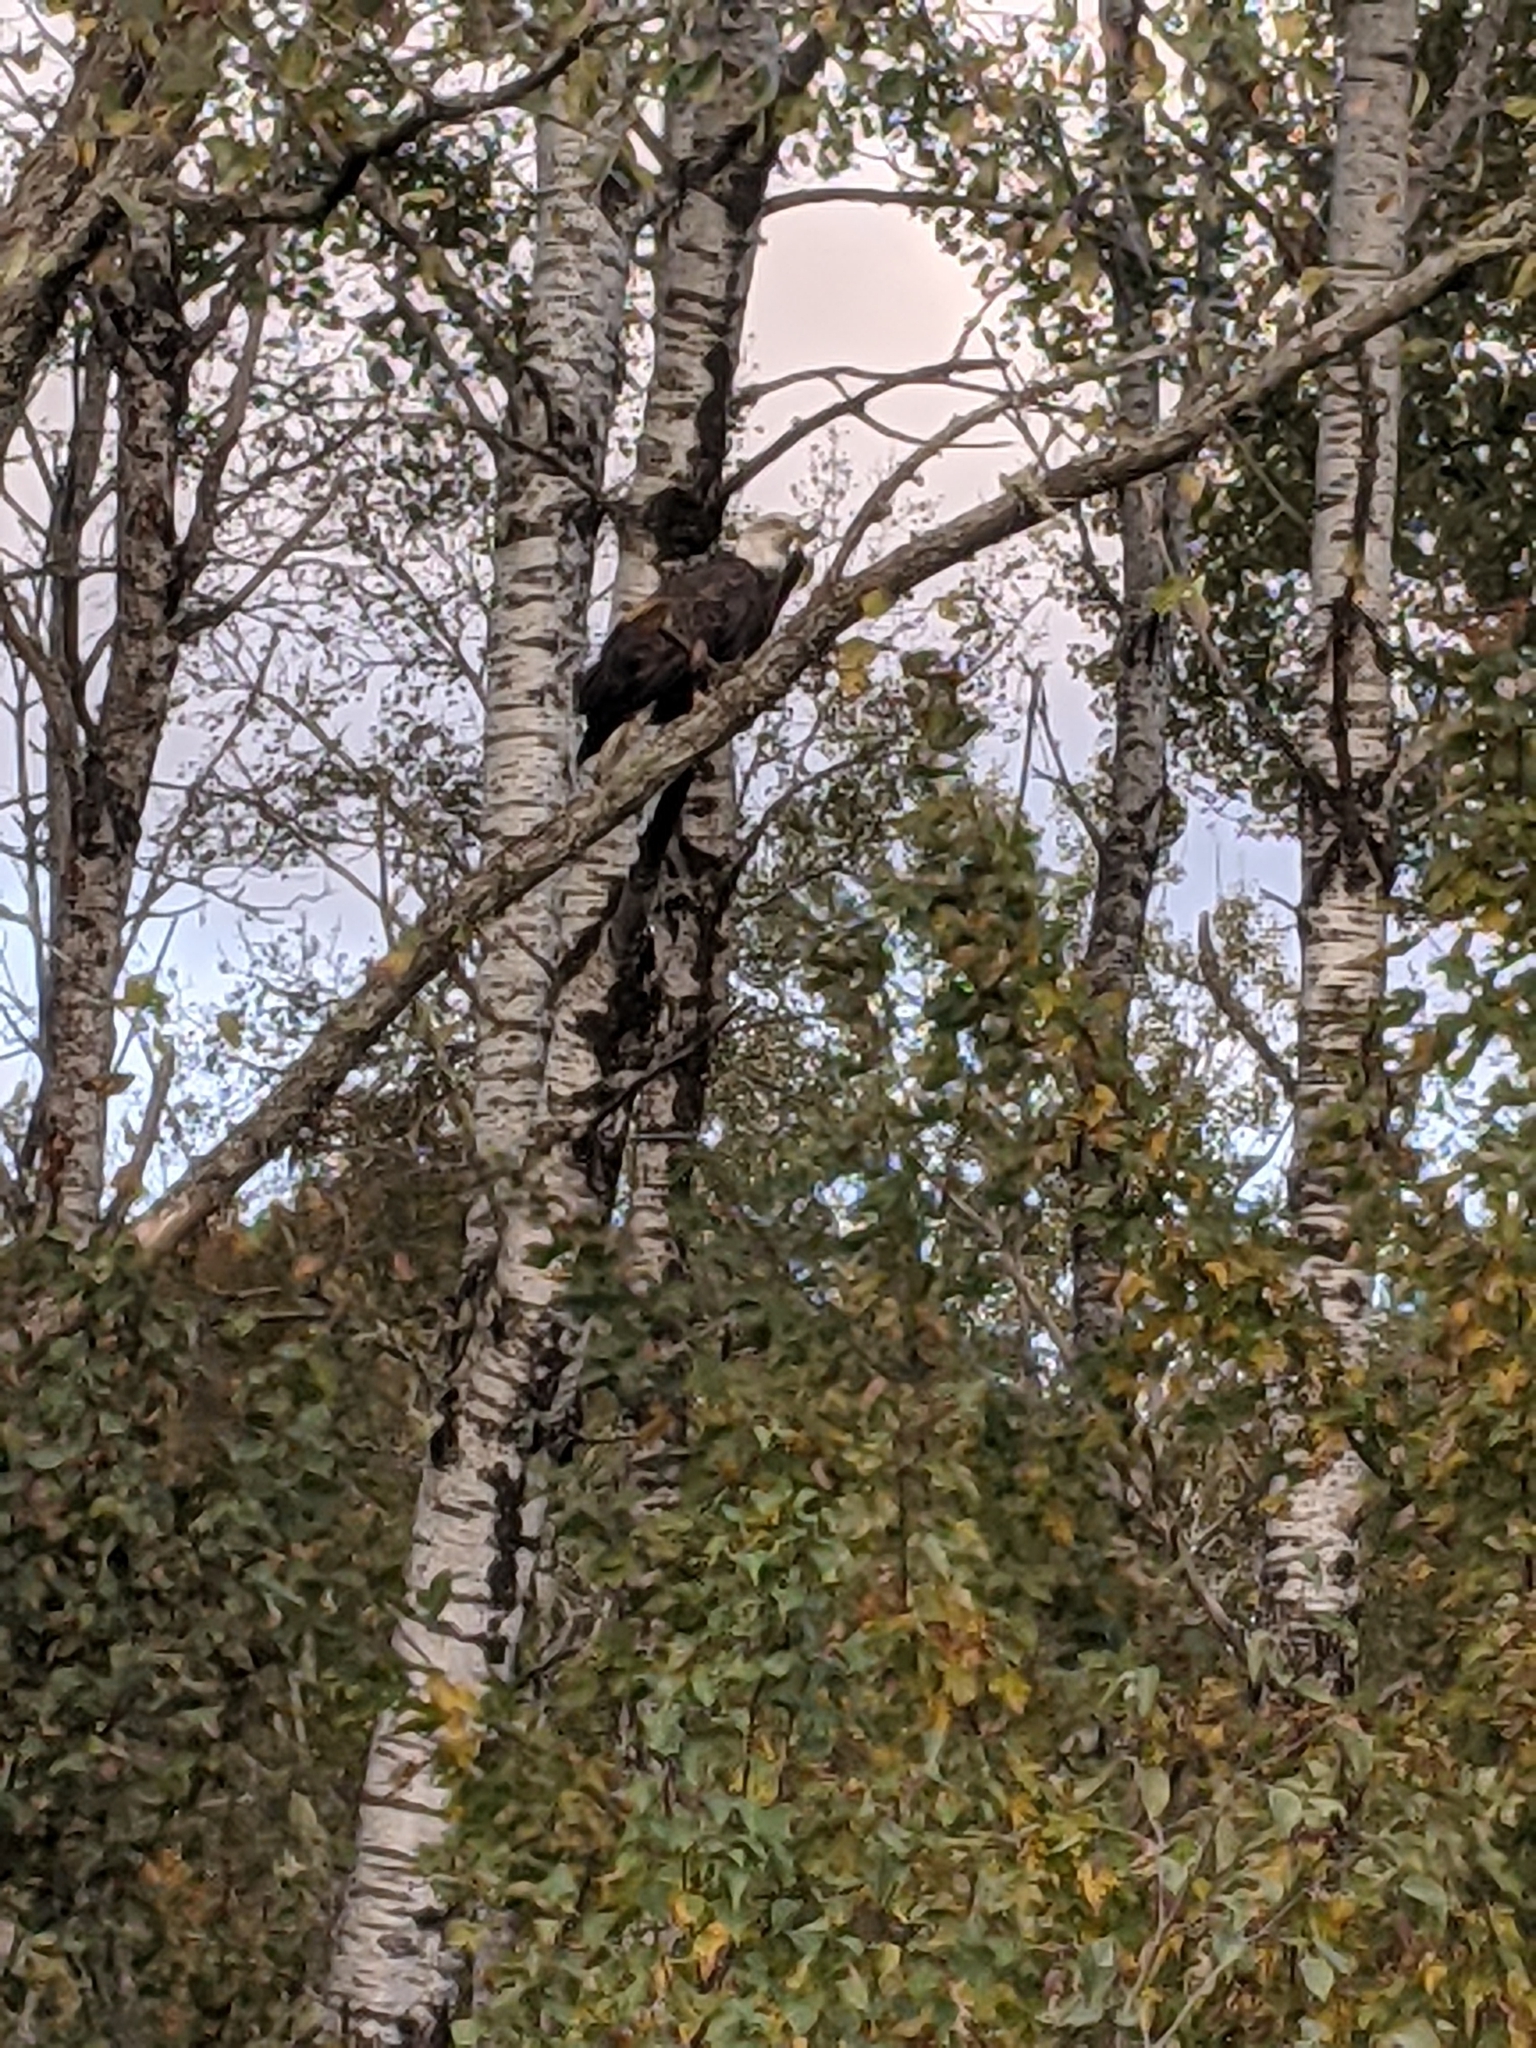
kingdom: Animalia
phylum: Chordata
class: Aves
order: Accipitriformes
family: Accipitridae
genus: Haliaeetus
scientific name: Haliaeetus leucocephalus
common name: Bald eagle
